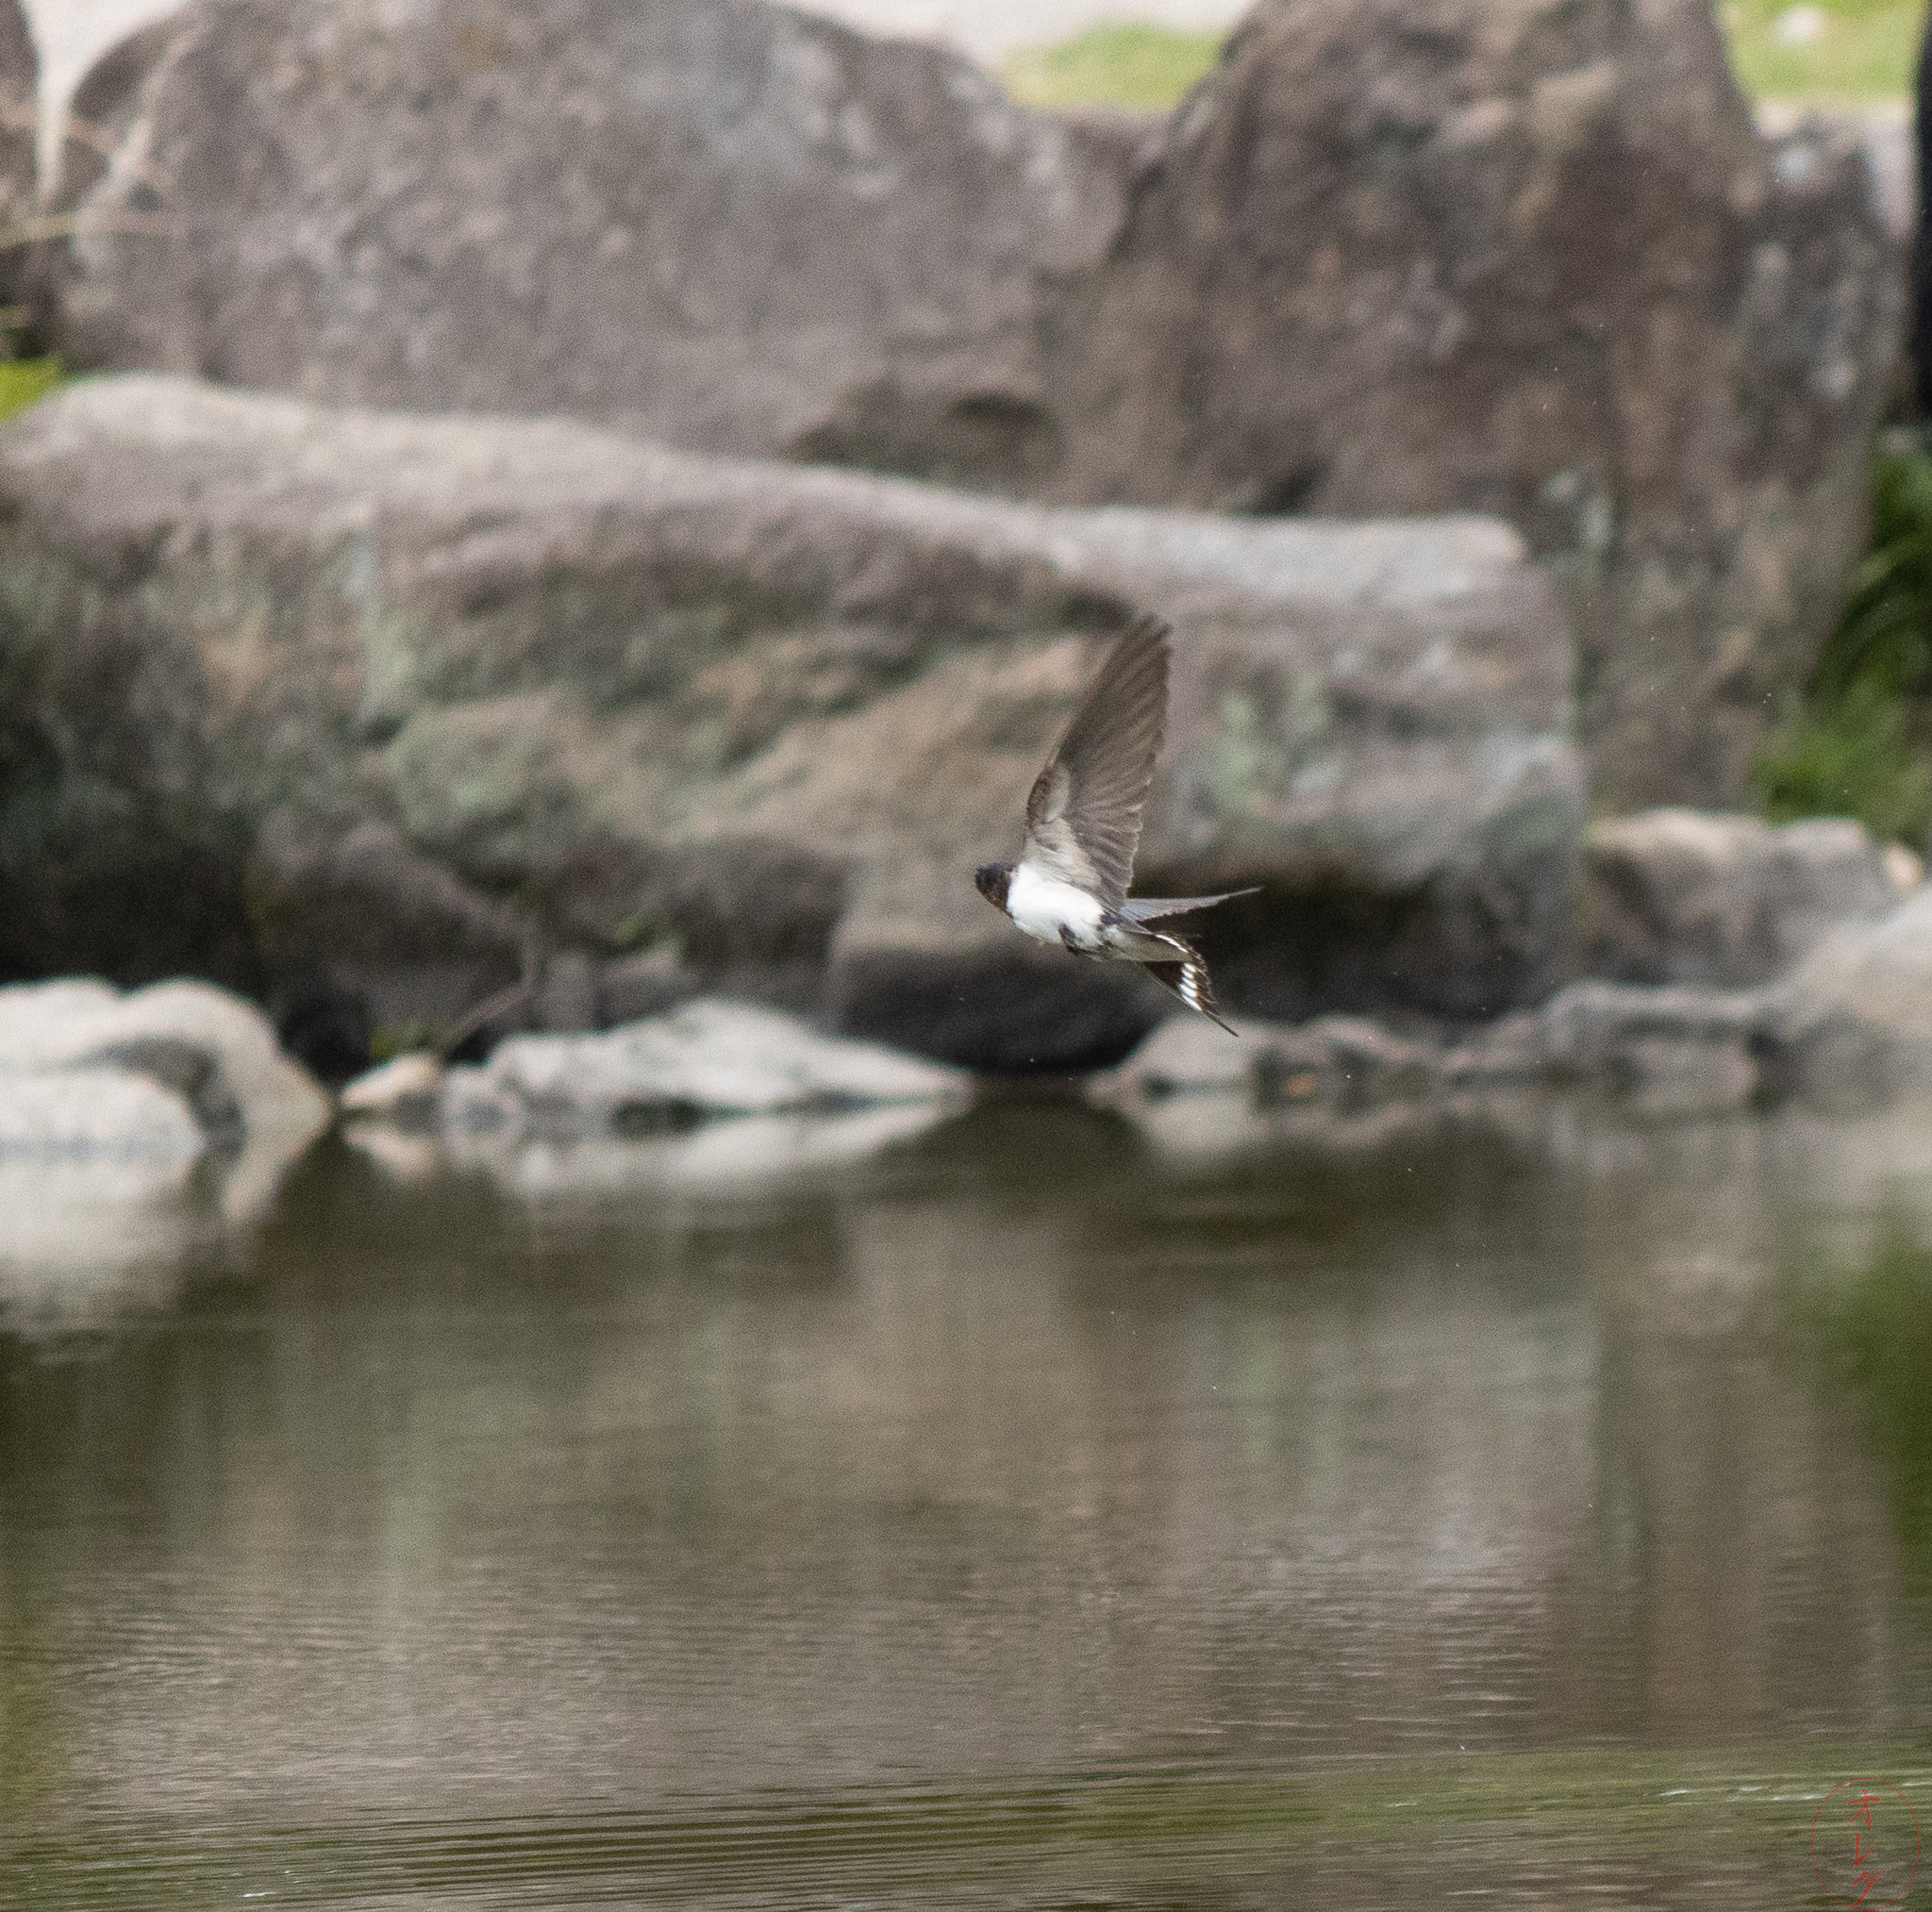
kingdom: Animalia
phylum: Chordata
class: Aves
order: Passeriformes
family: Hirundinidae
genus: Hirundo
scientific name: Hirundo rustica
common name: Barn swallow
